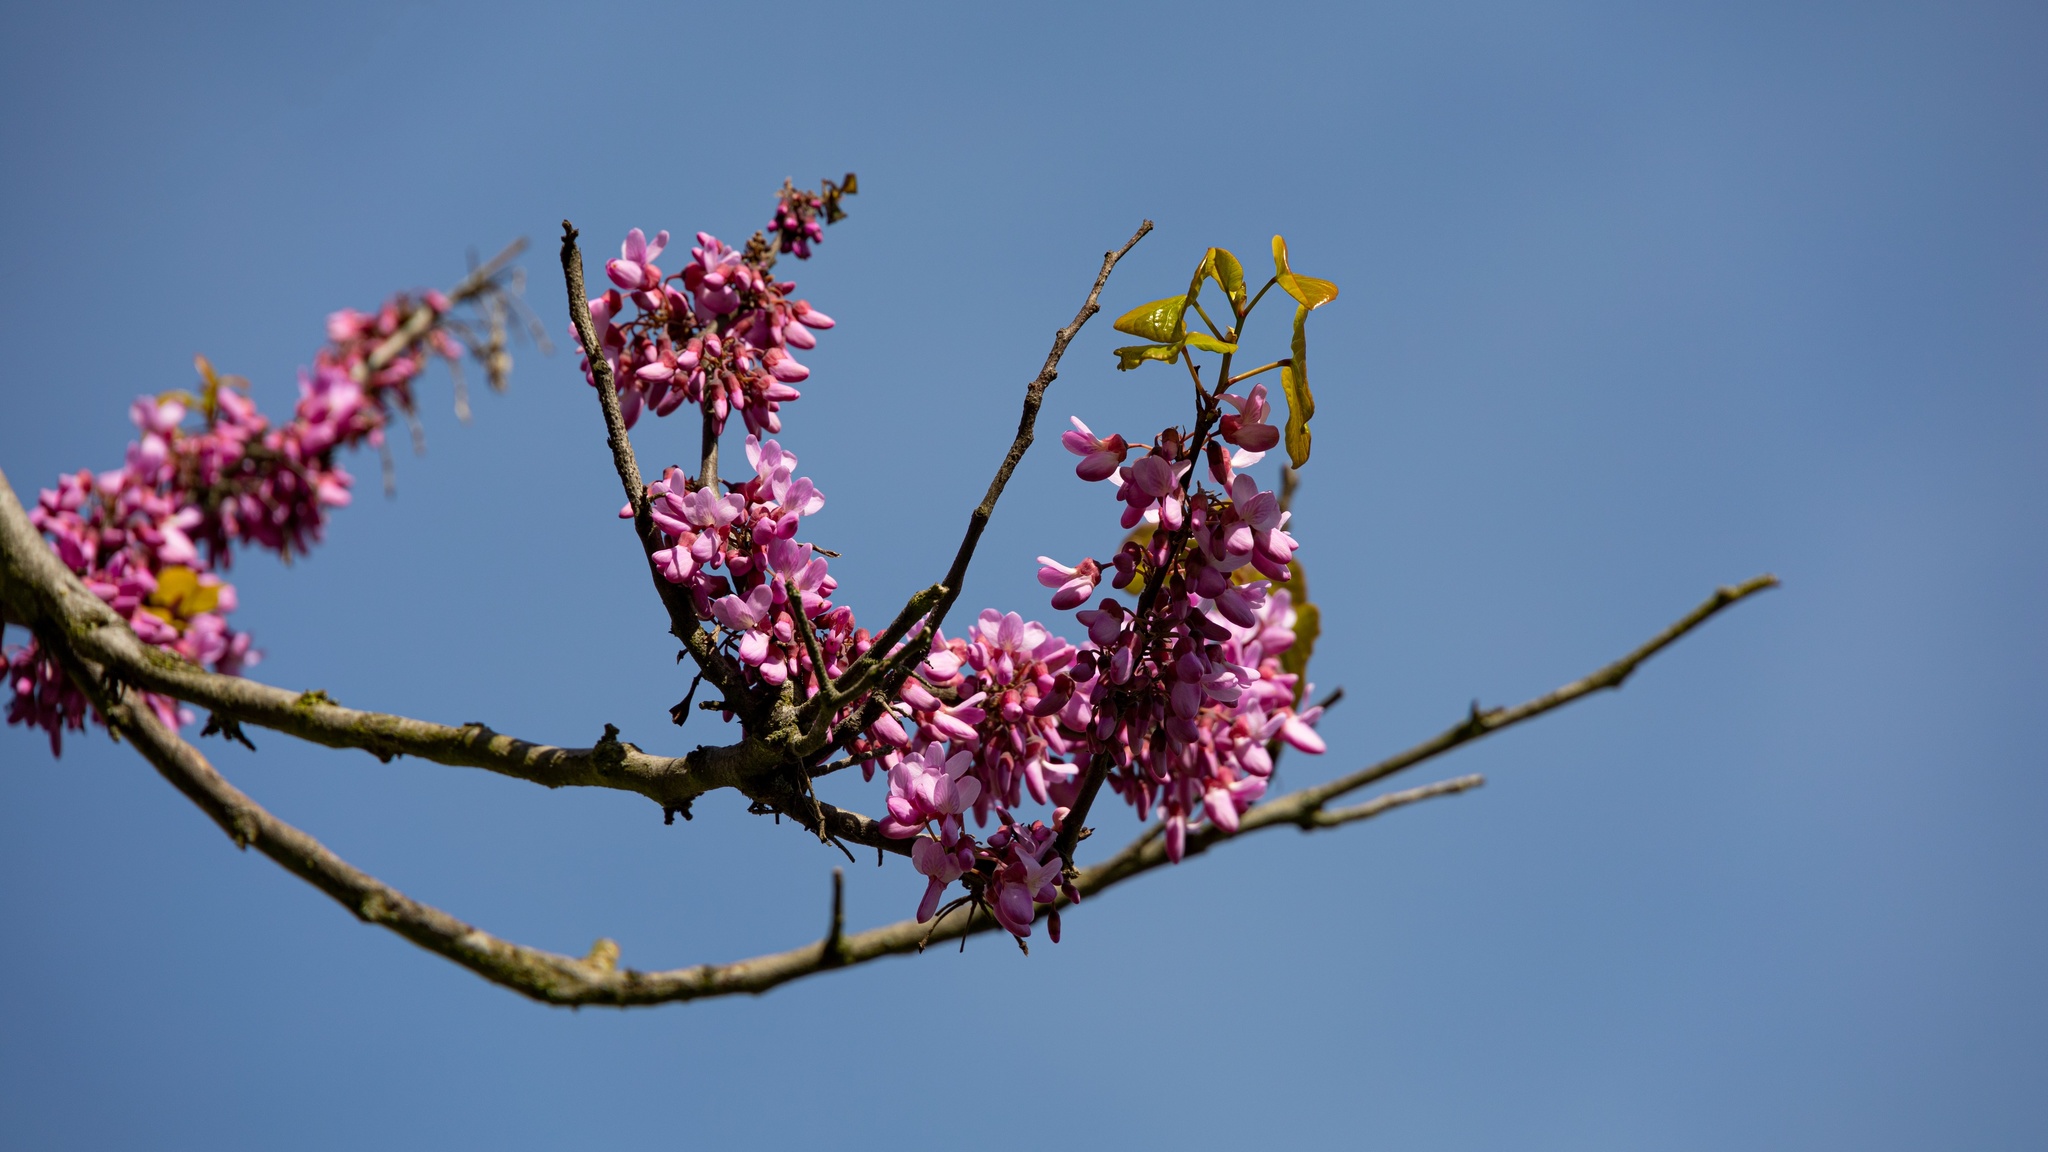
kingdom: Plantae
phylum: Tracheophyta
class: Magnoliopsida
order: Fabales
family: Fabaceae
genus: Cercis
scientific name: Cercis siliquastrum
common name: Judas tree
